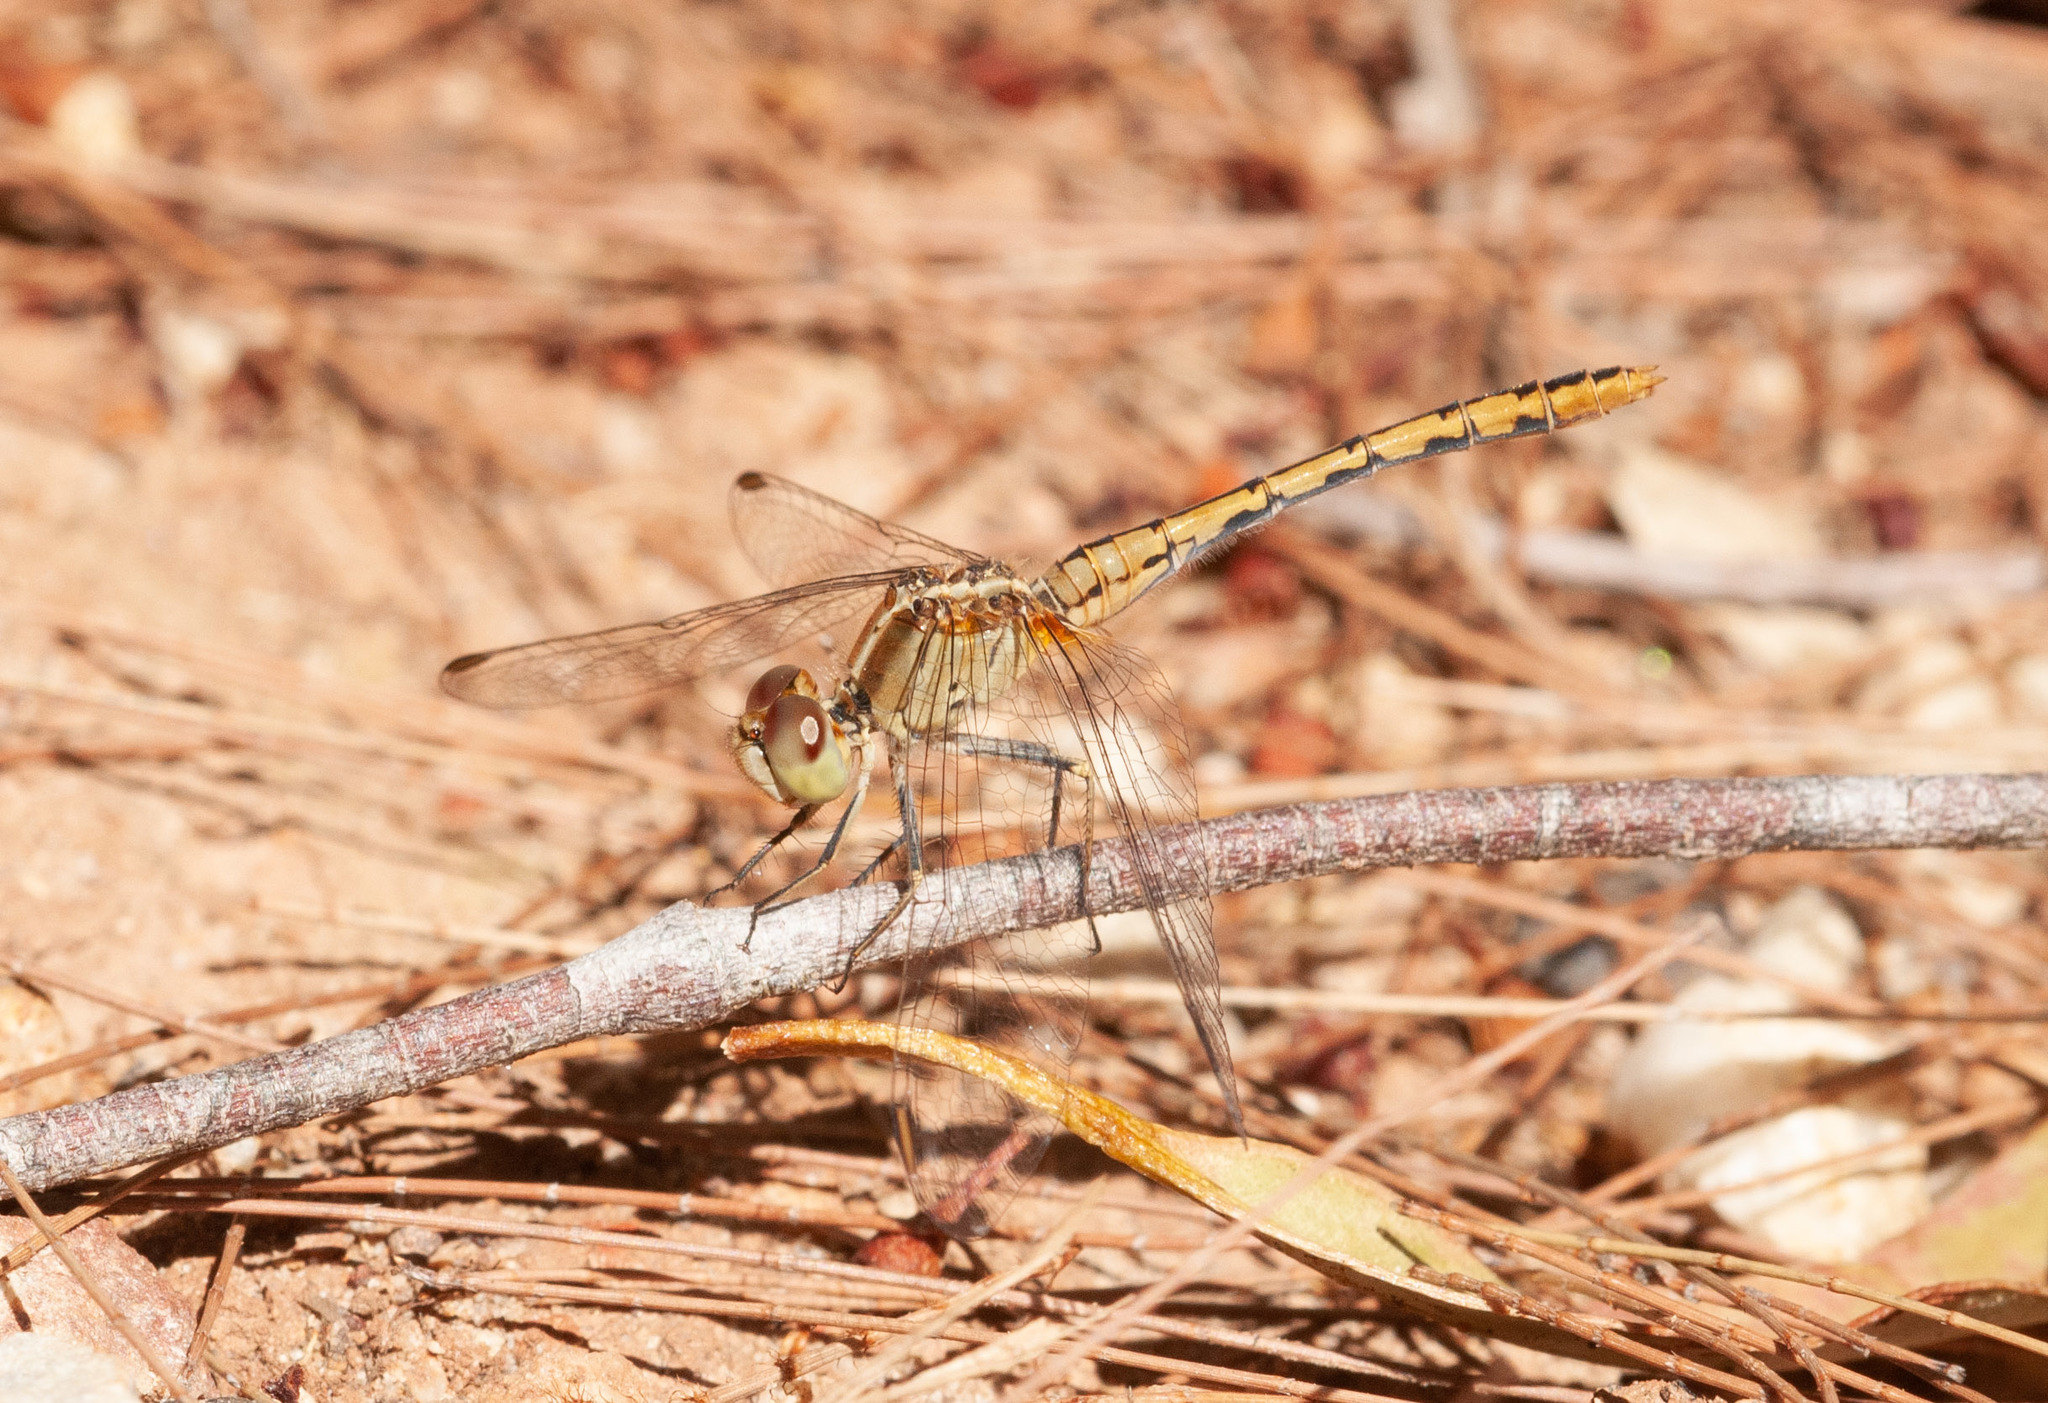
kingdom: Animalia
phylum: Arthropoda
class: Insecta
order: Odonata
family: Libellulidae
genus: Diplacodes
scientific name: Diplacodes bipunctata
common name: Red percher dragonfly
